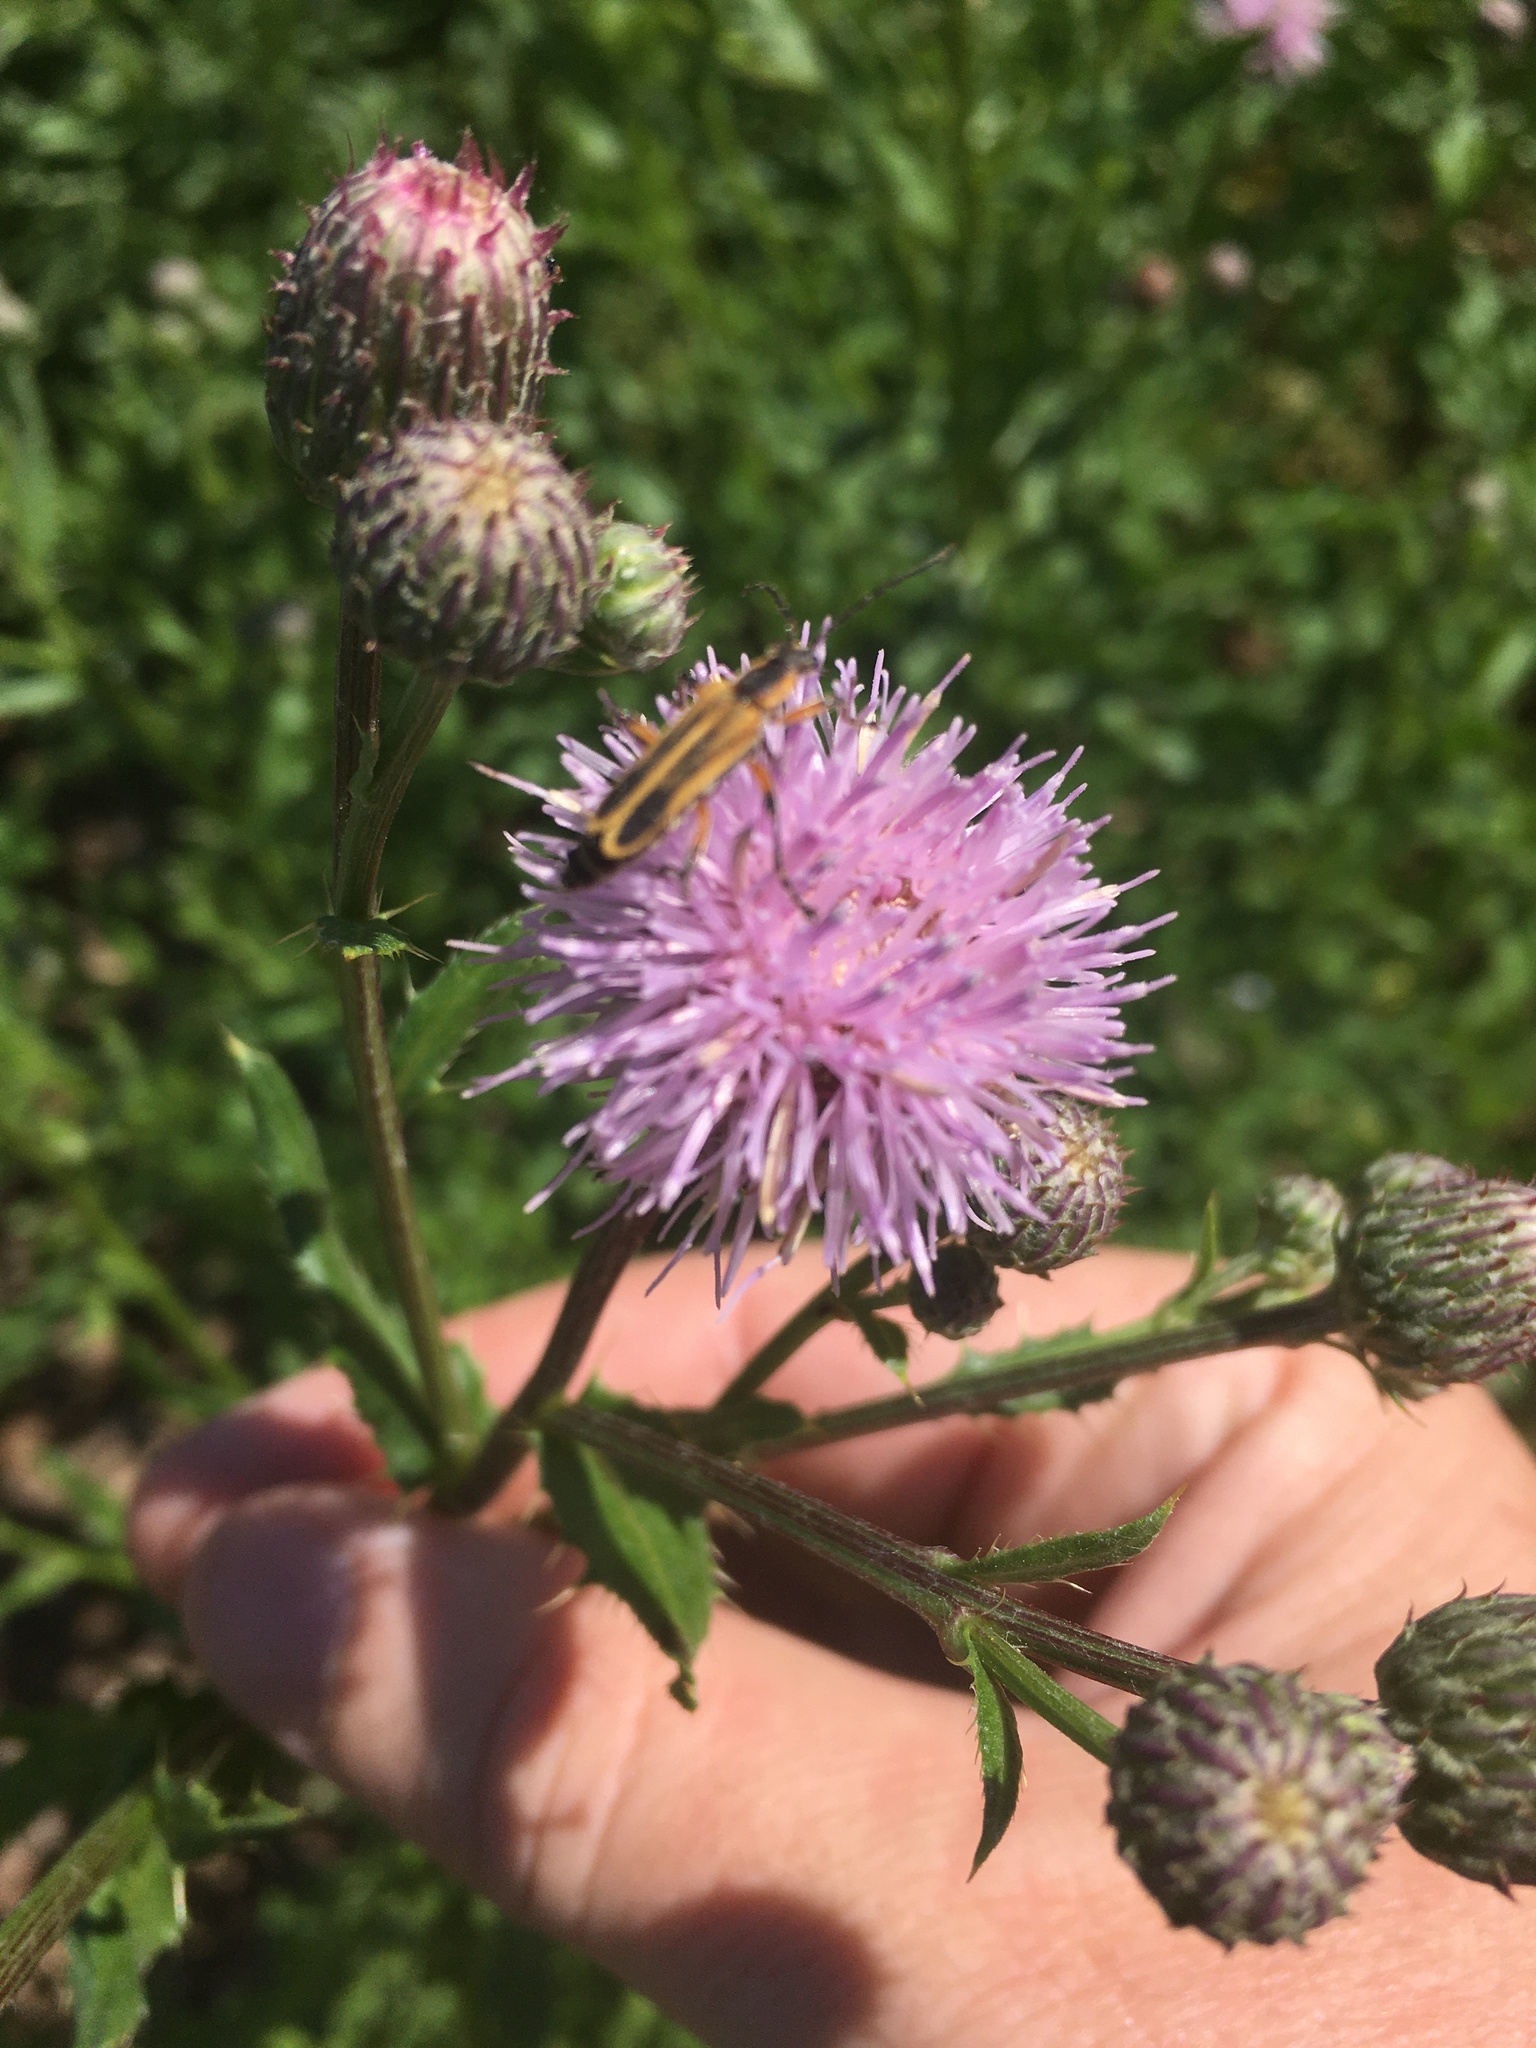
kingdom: Animalia
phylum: Arthropoda
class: Insecta
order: Coleoptera
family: Cantharidae
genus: Chauliognathus
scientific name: Chauliognathus marginatus
